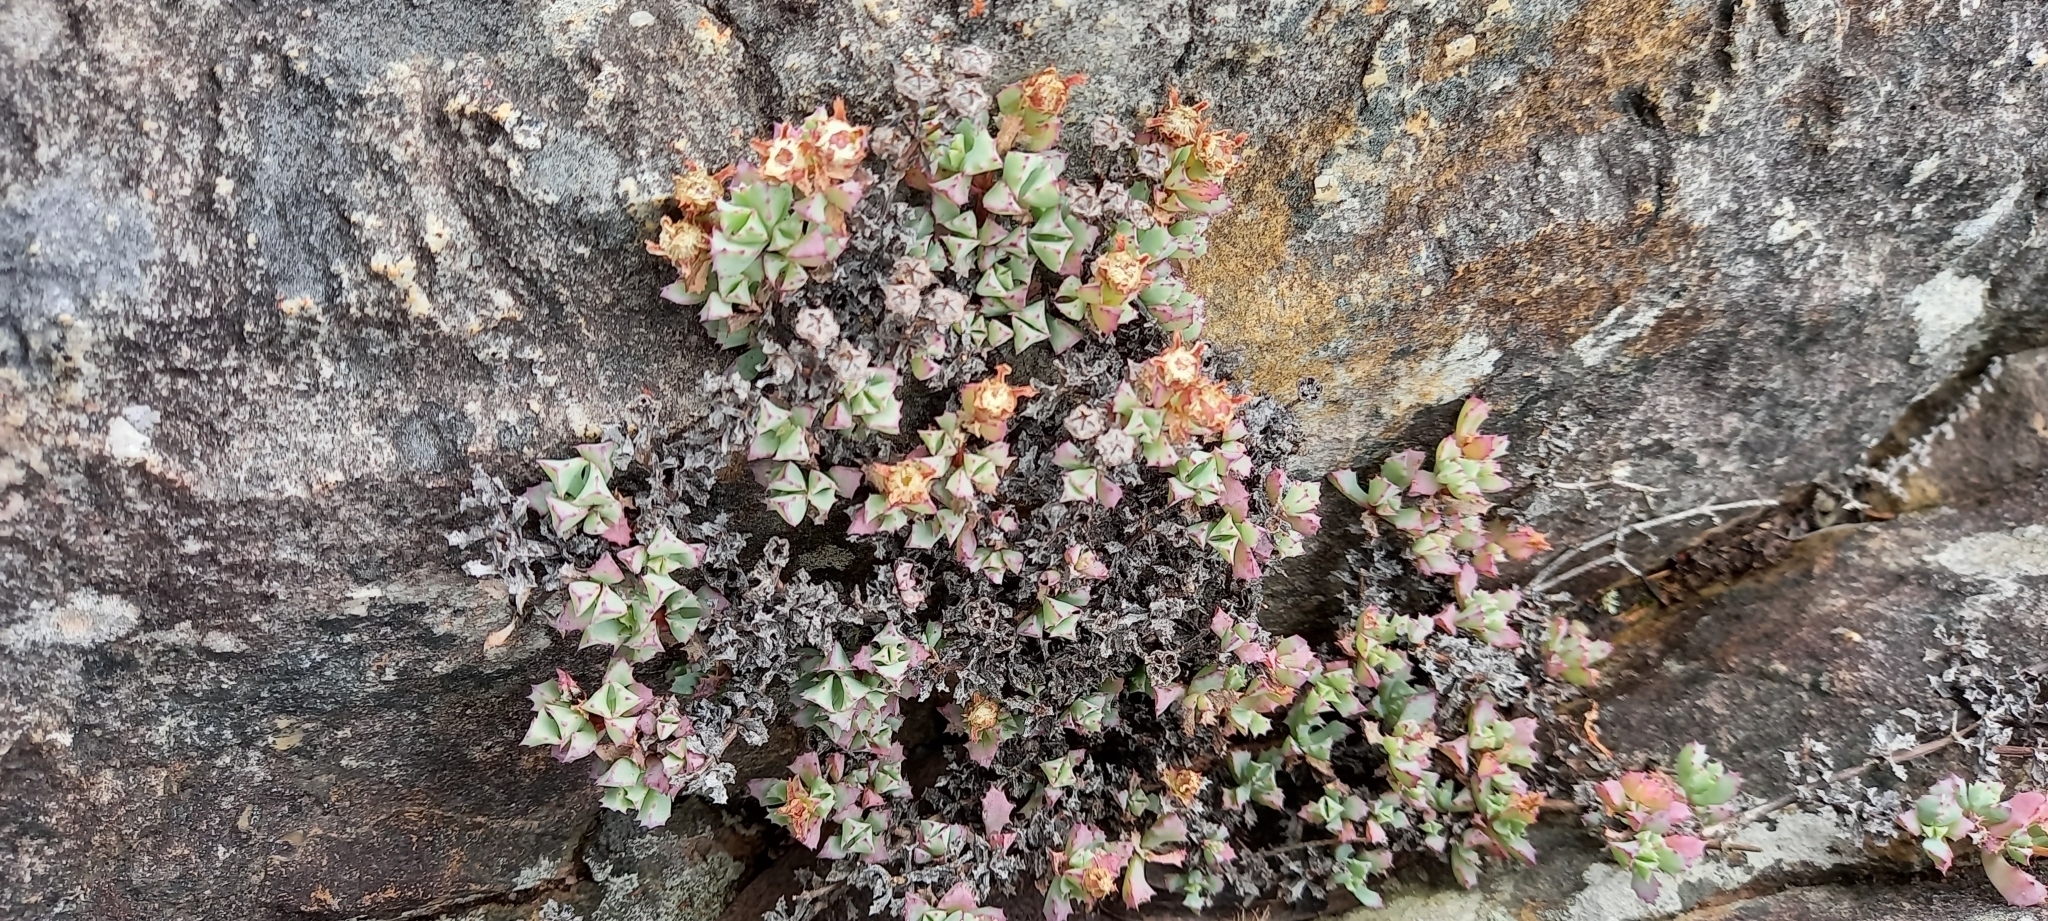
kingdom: Plantae
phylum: Tracheophyta
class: Magnoliopsida
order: Caryophyllales
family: Aizoaceae
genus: Oscularia
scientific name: Oscularia deltoides
